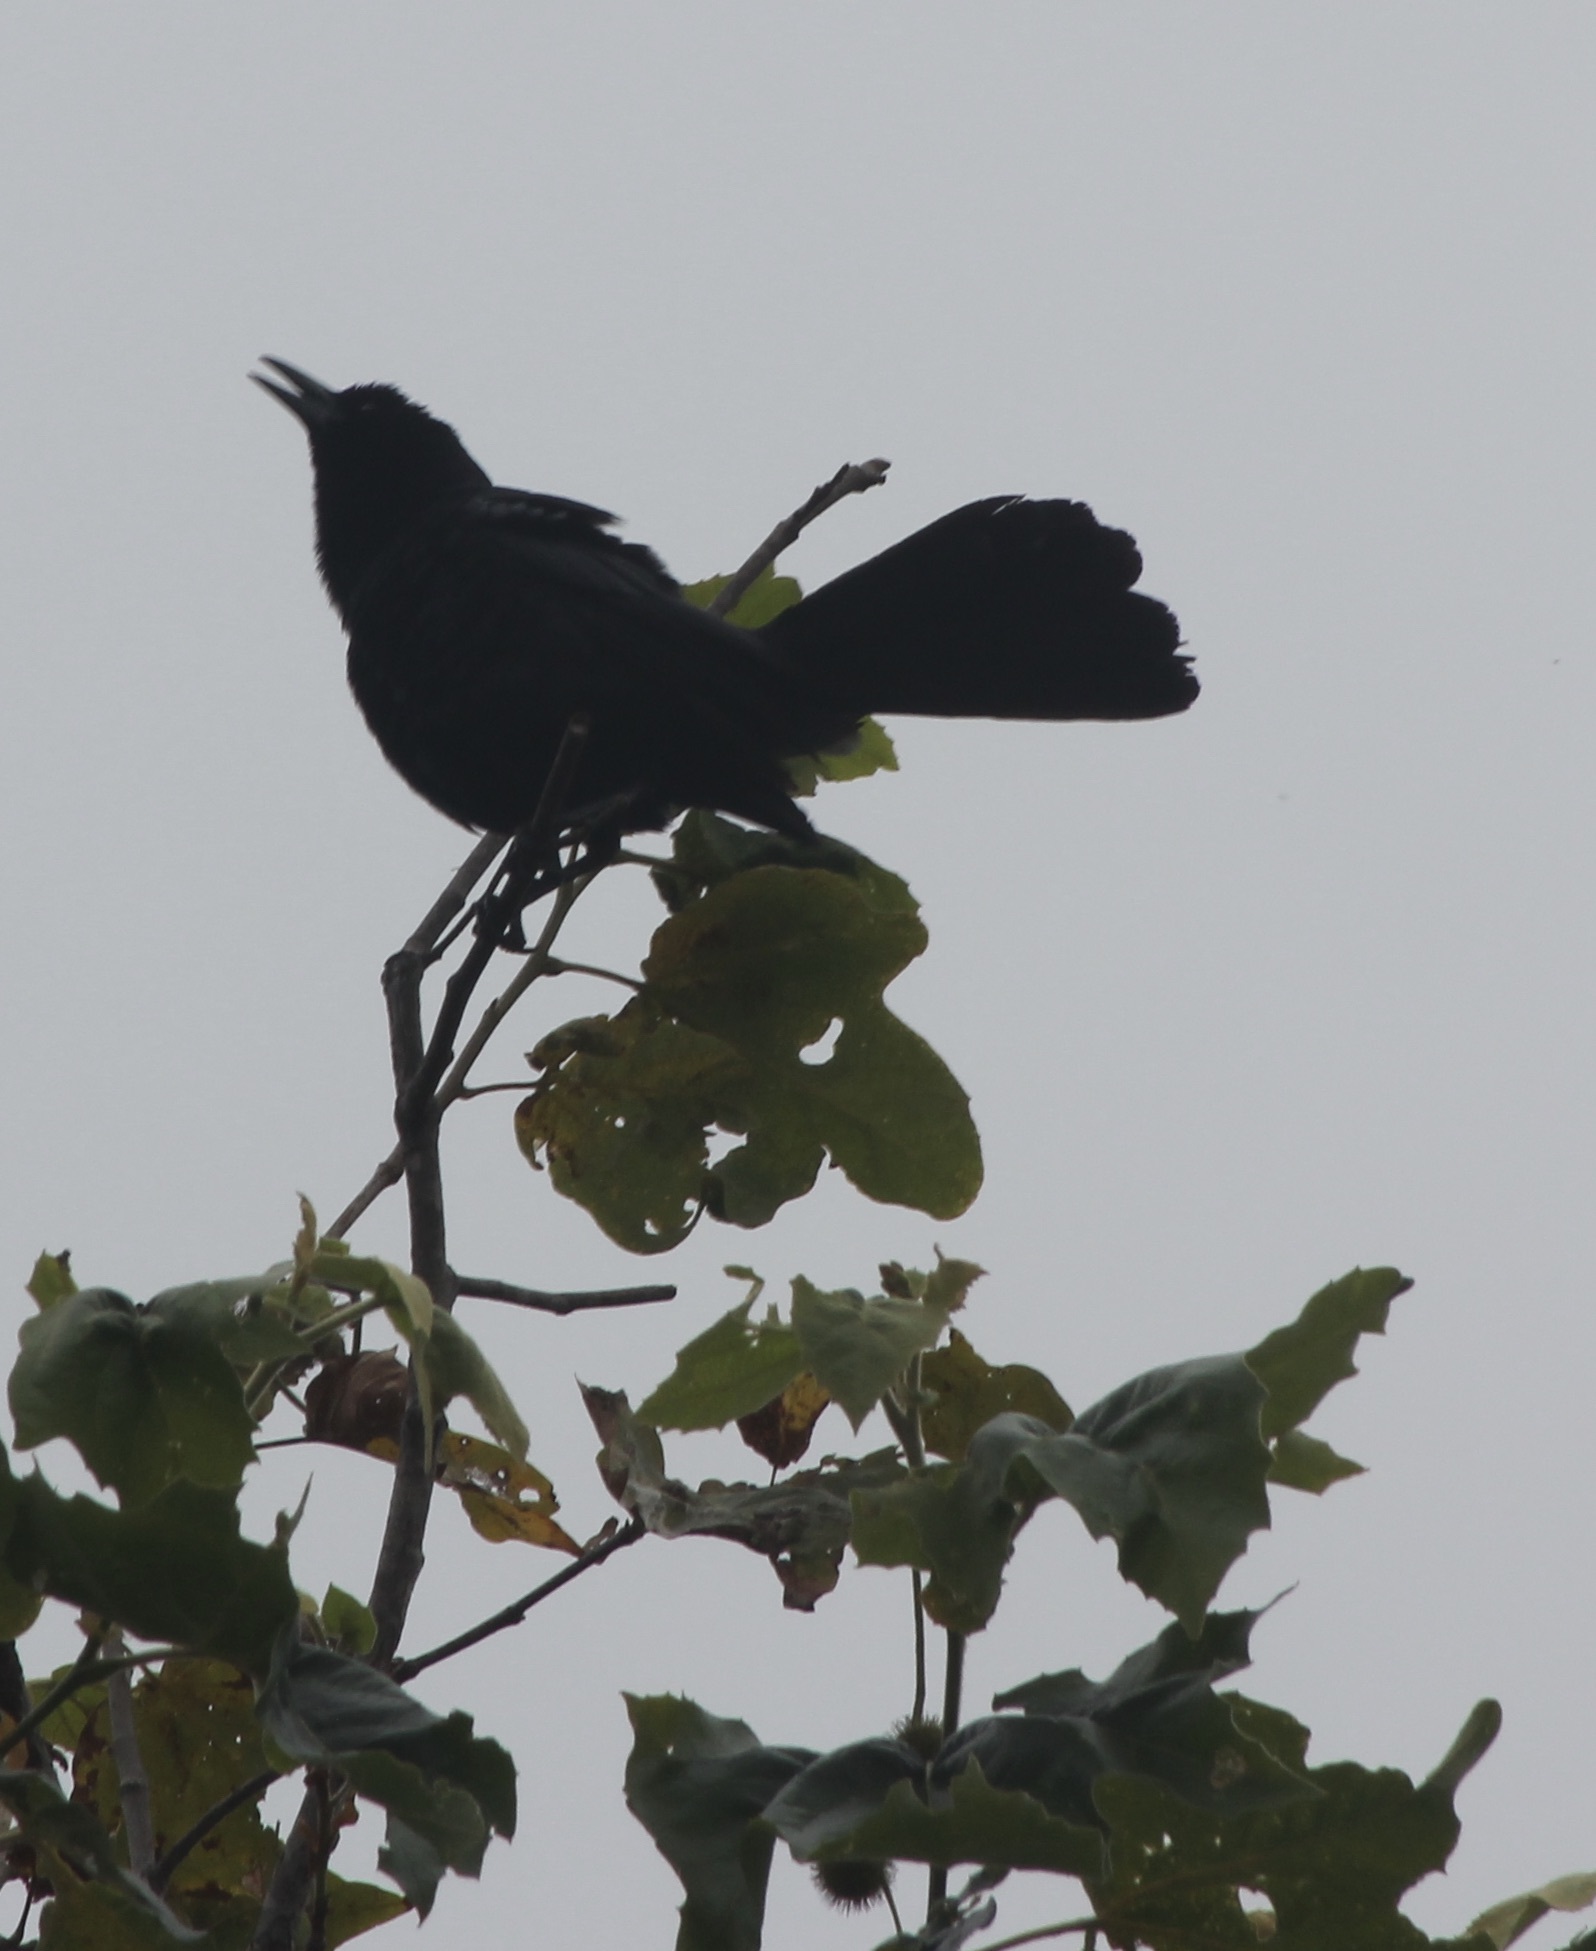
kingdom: Animalia
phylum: Chordata
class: Aves
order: Passeriformes
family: Icteridae
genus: Quiscalus
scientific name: Quiscalus mexicanus
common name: Great-tailed grackle
